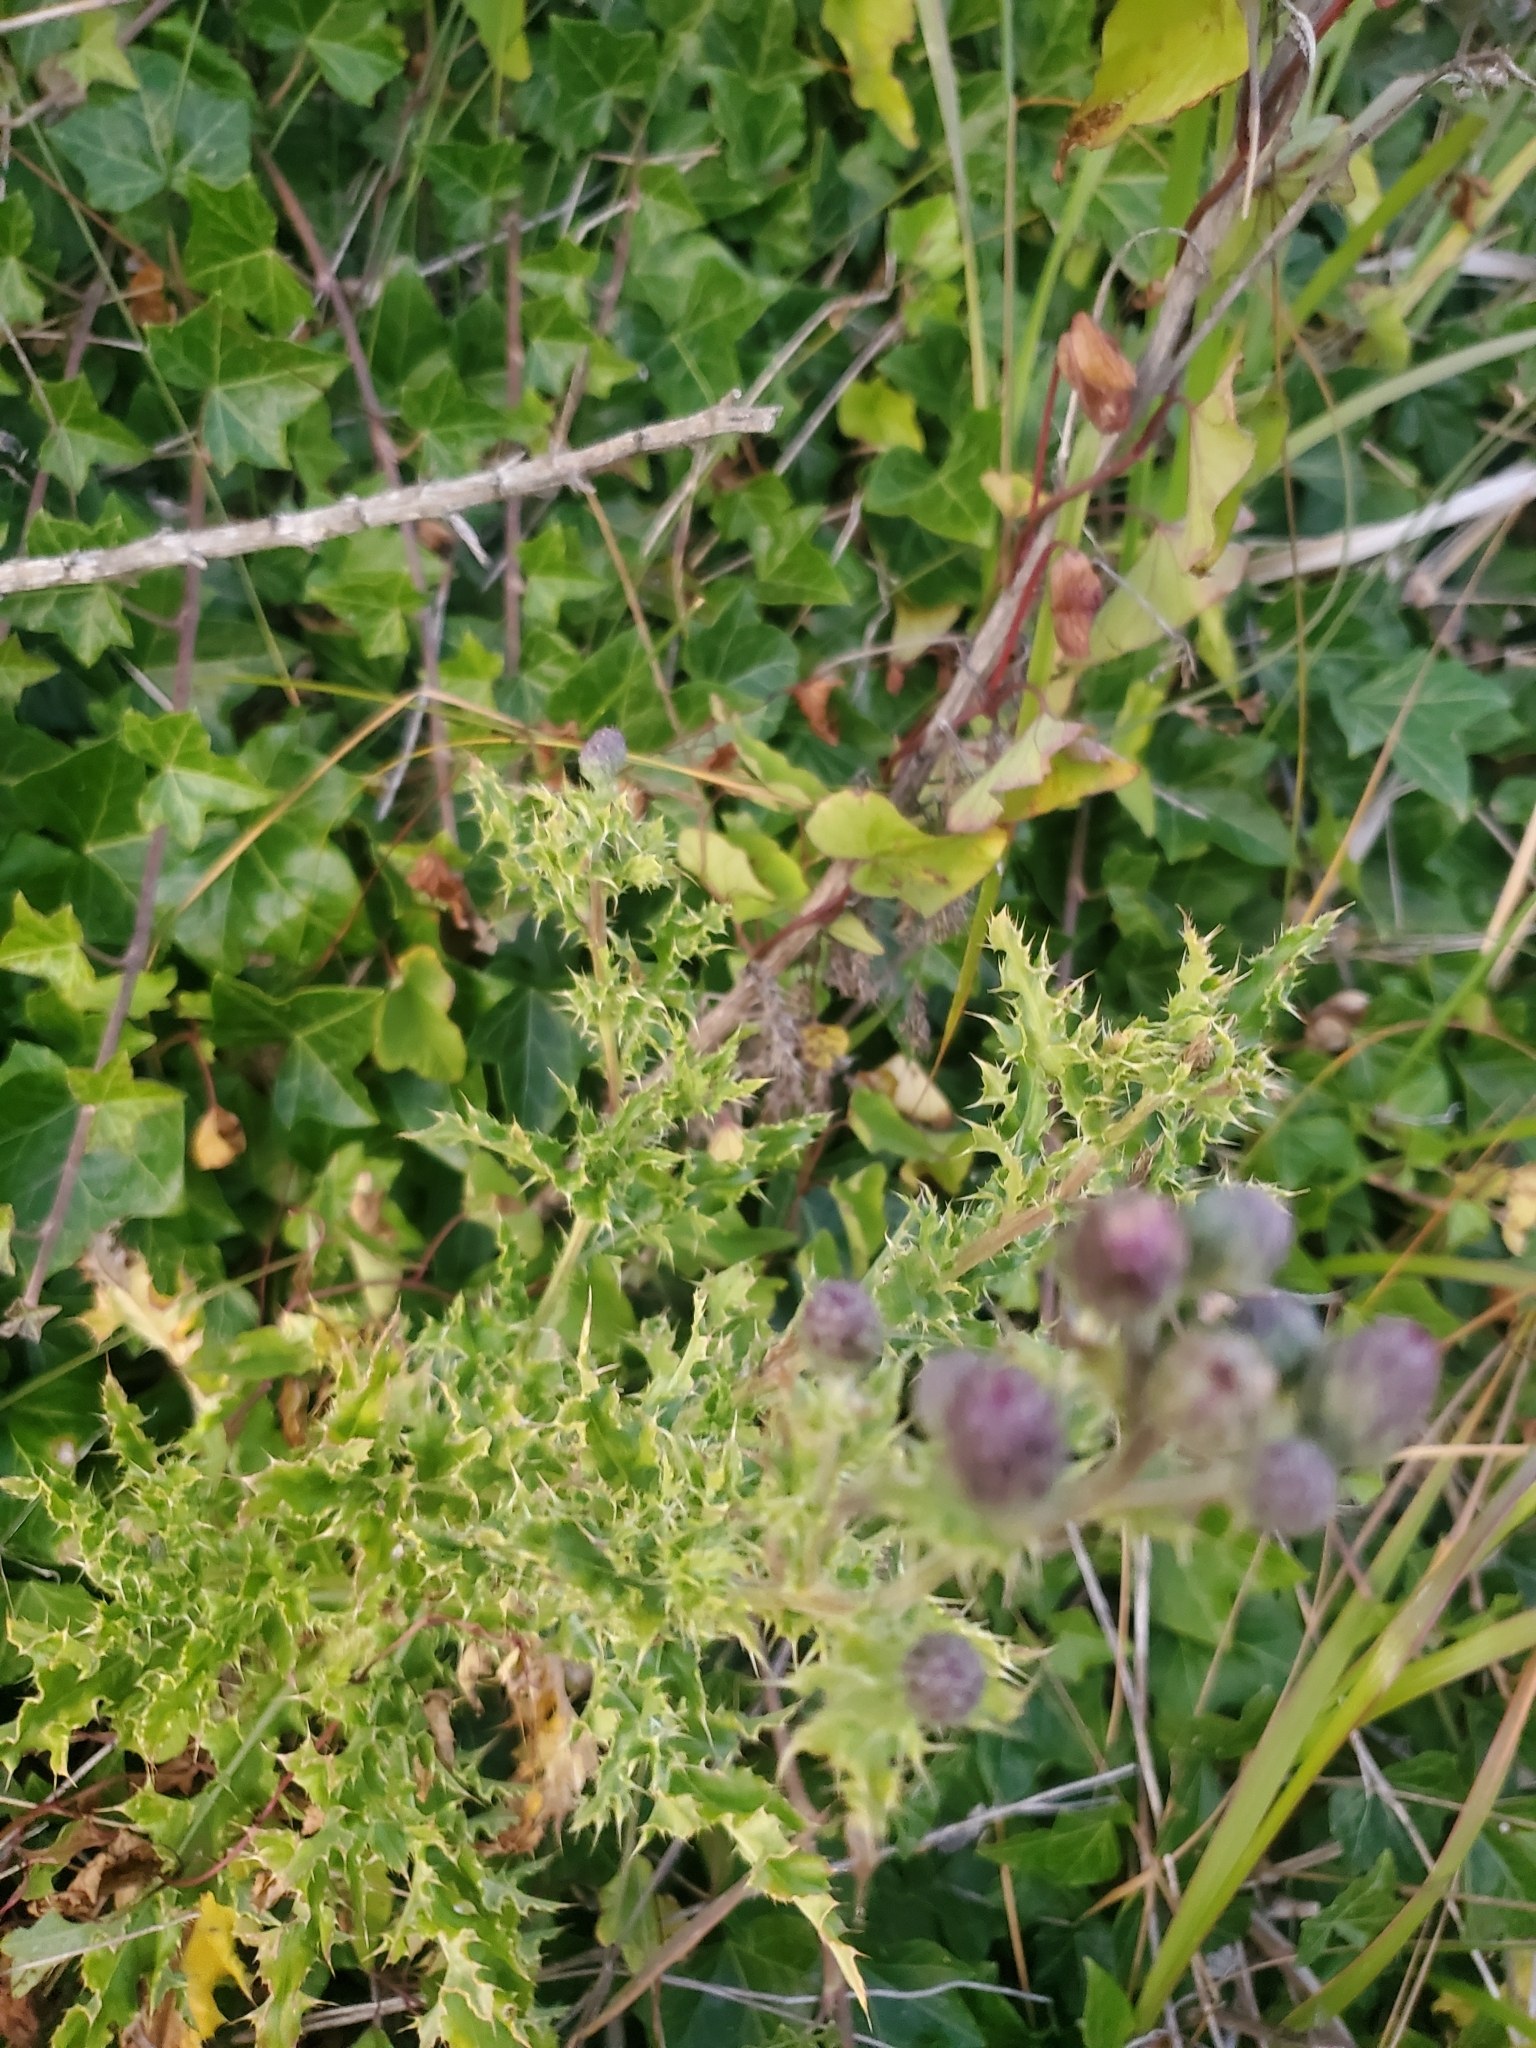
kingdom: Plantae
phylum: Tracheophyta
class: Magnoliopsida
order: Asterales
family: Asteraceae
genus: Cirsium
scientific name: Cirsium arvense
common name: Creeping thistle
